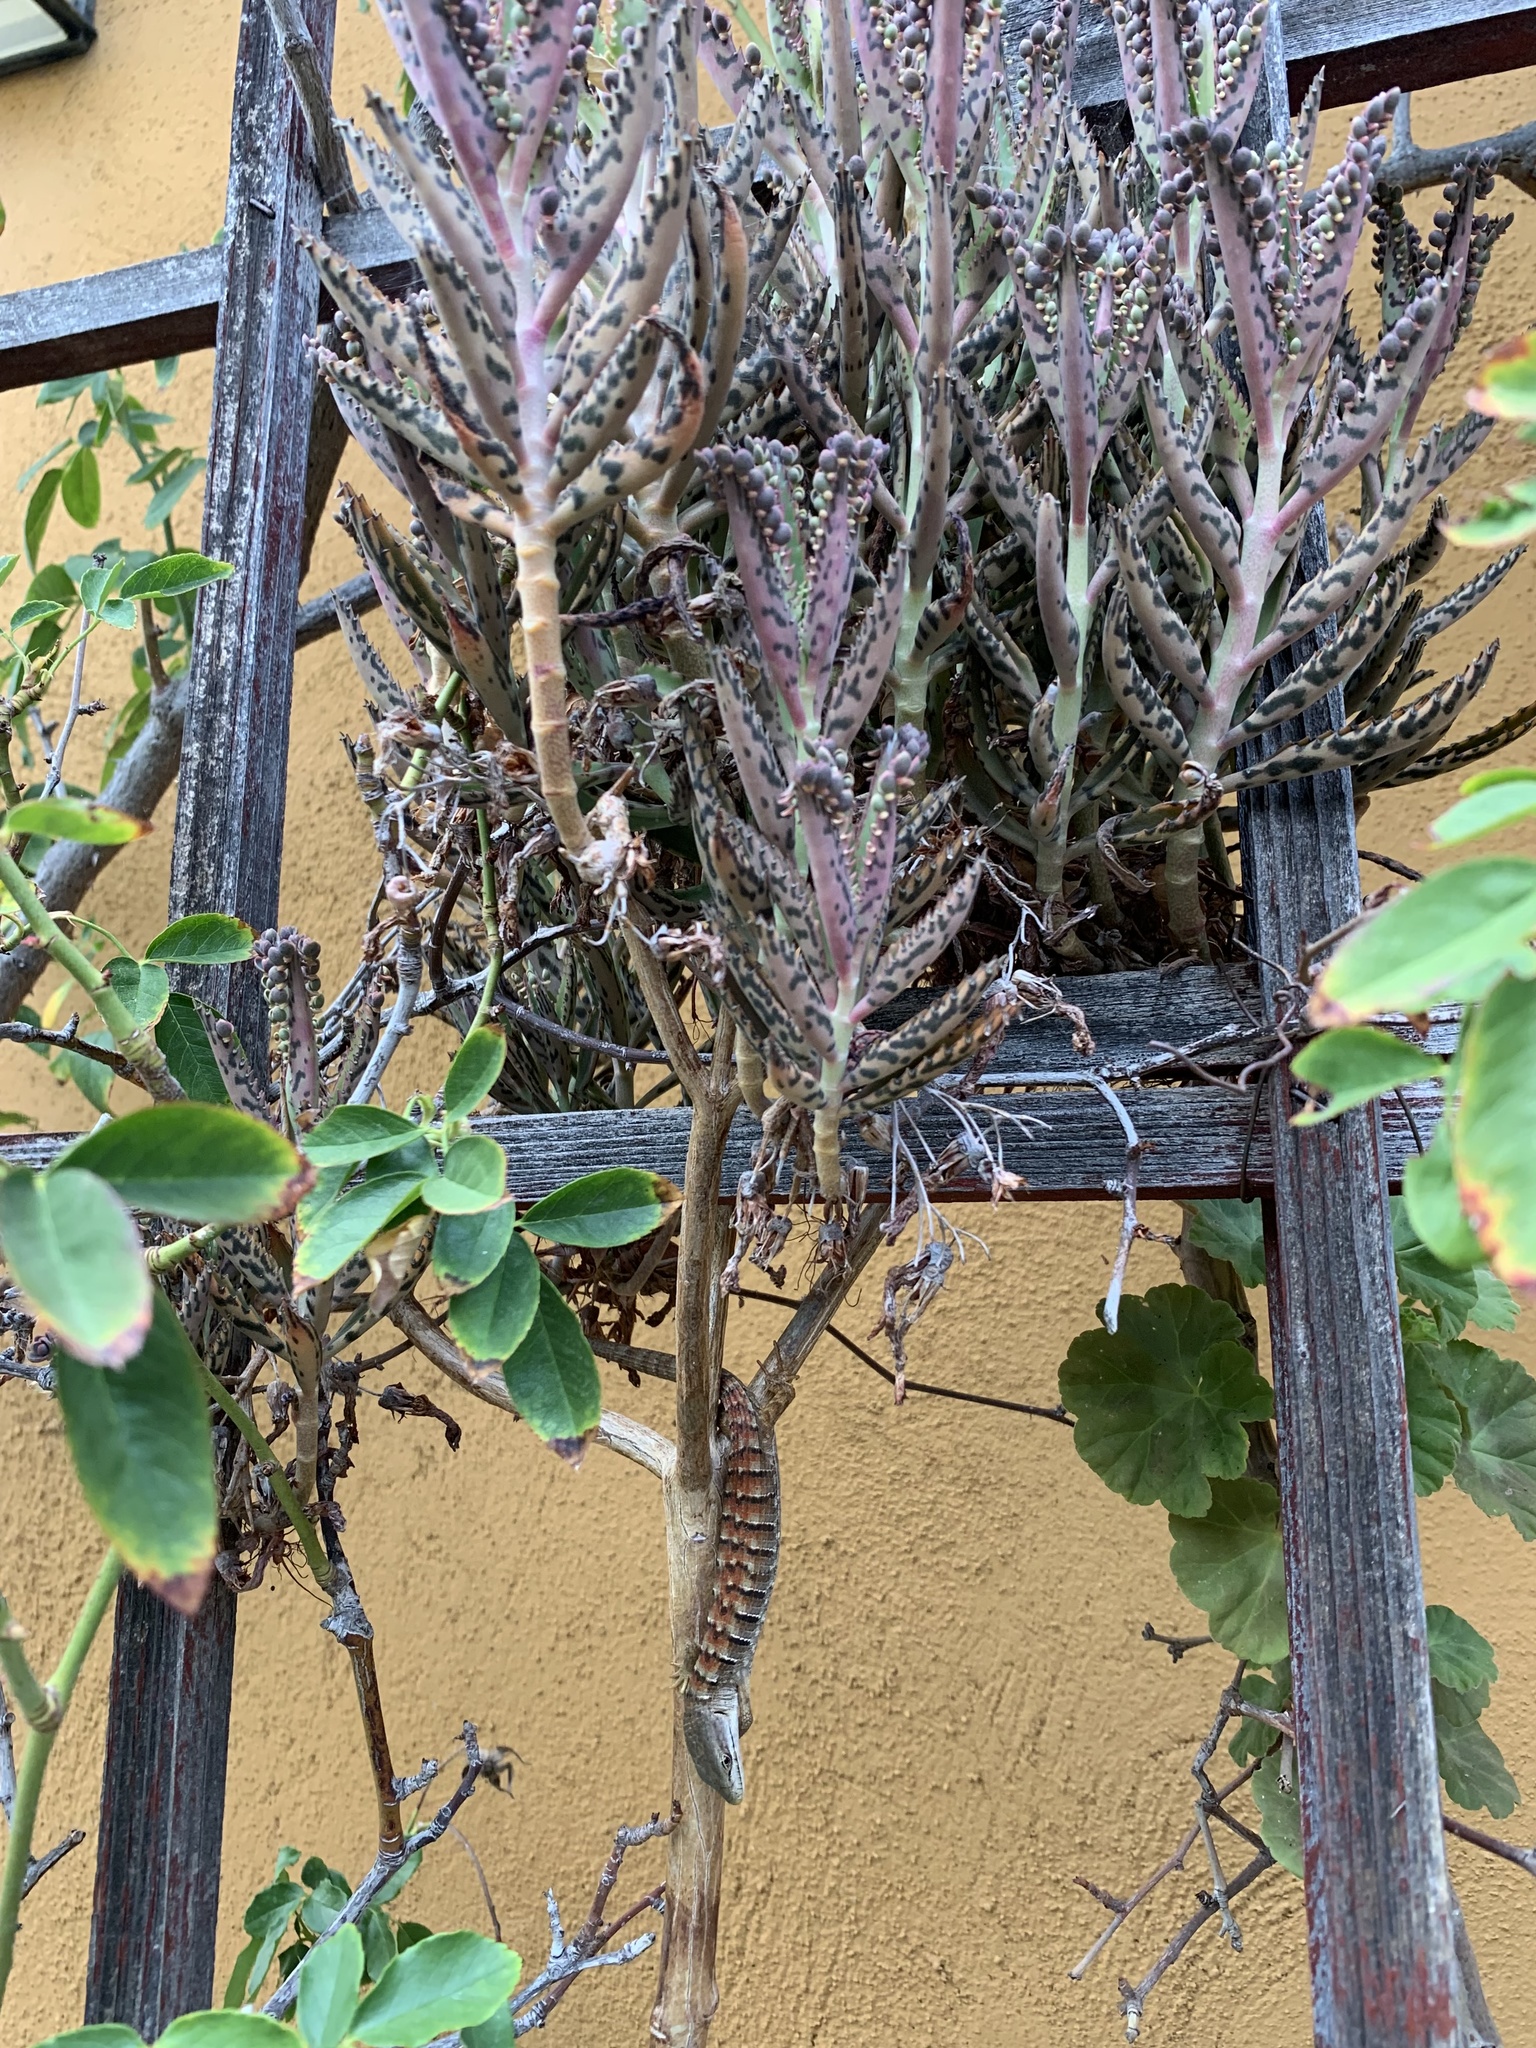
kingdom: Animalia
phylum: Chordata
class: Squamata
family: Anguidae
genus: Elgaria
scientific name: Elgaria multicarinata
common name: Southern alligator lizard
